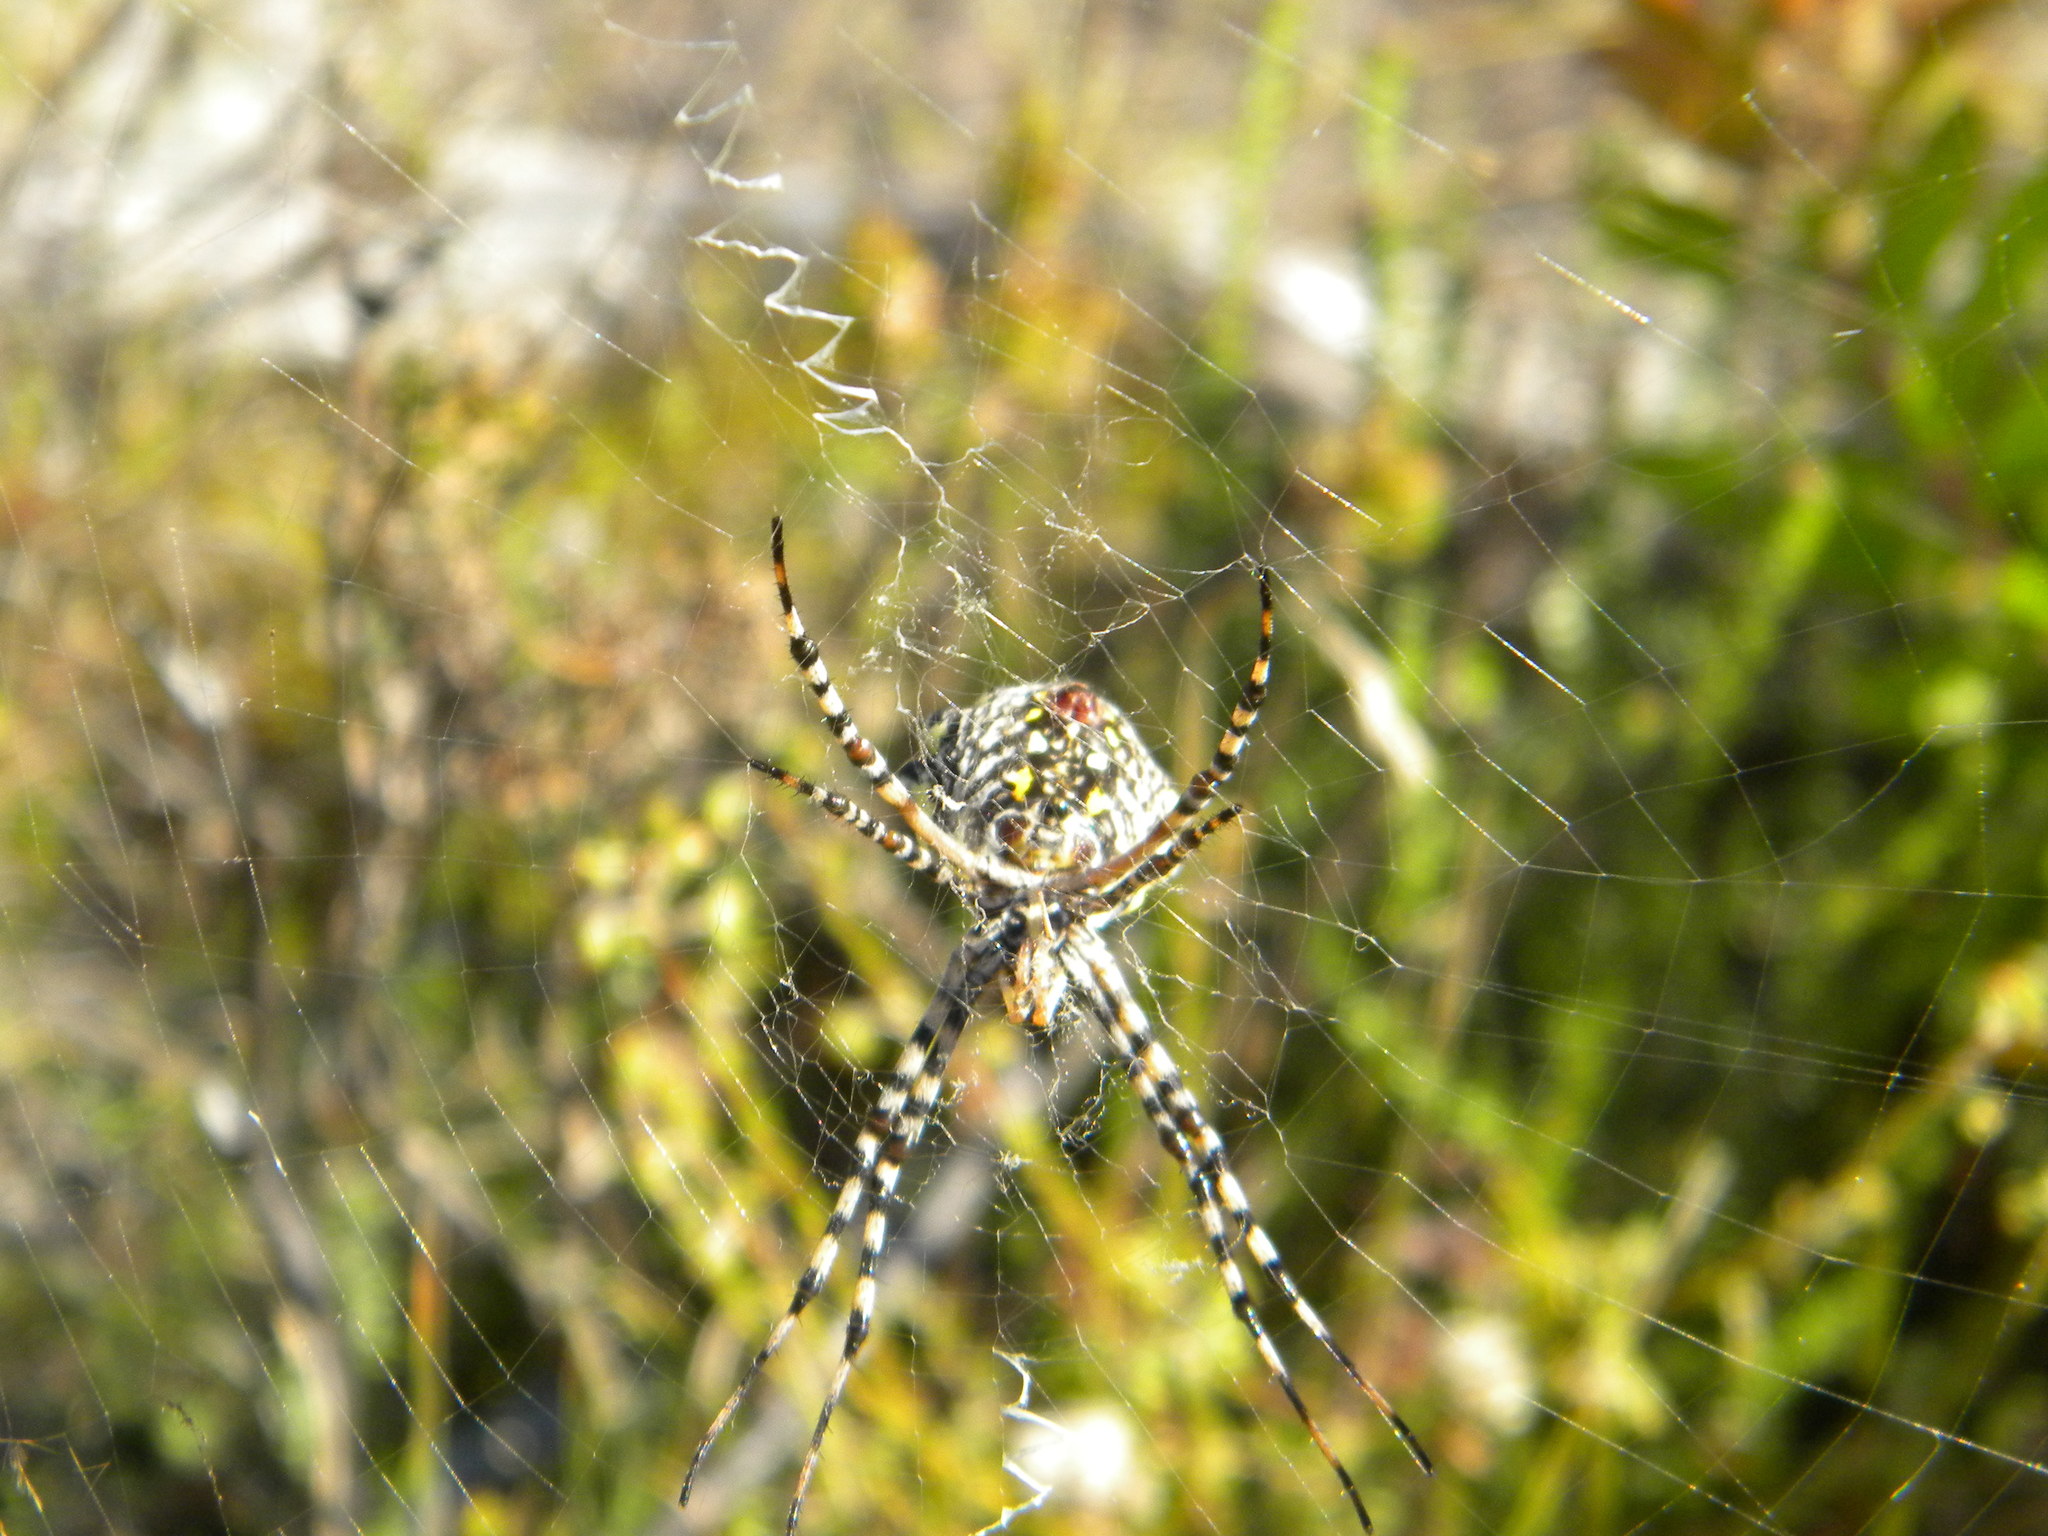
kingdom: Animalia
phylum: Arthropoda
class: Arachnida
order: Araneae
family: Araneidae
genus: Argiope
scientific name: Argiope australis
